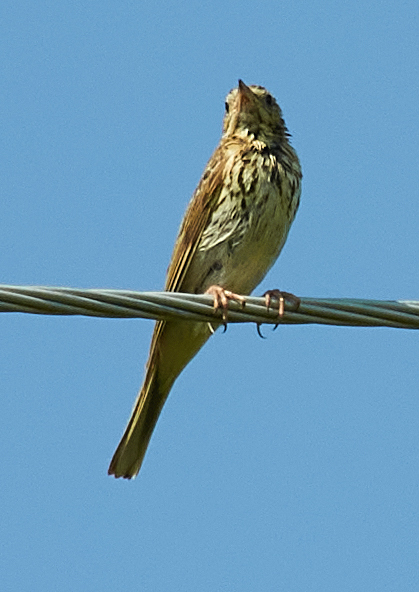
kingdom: Animalia
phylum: Chordata
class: Aves
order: Passeriformes
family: Motacillidae
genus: Anthus
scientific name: Anthus trivialis
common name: Tree pipit
